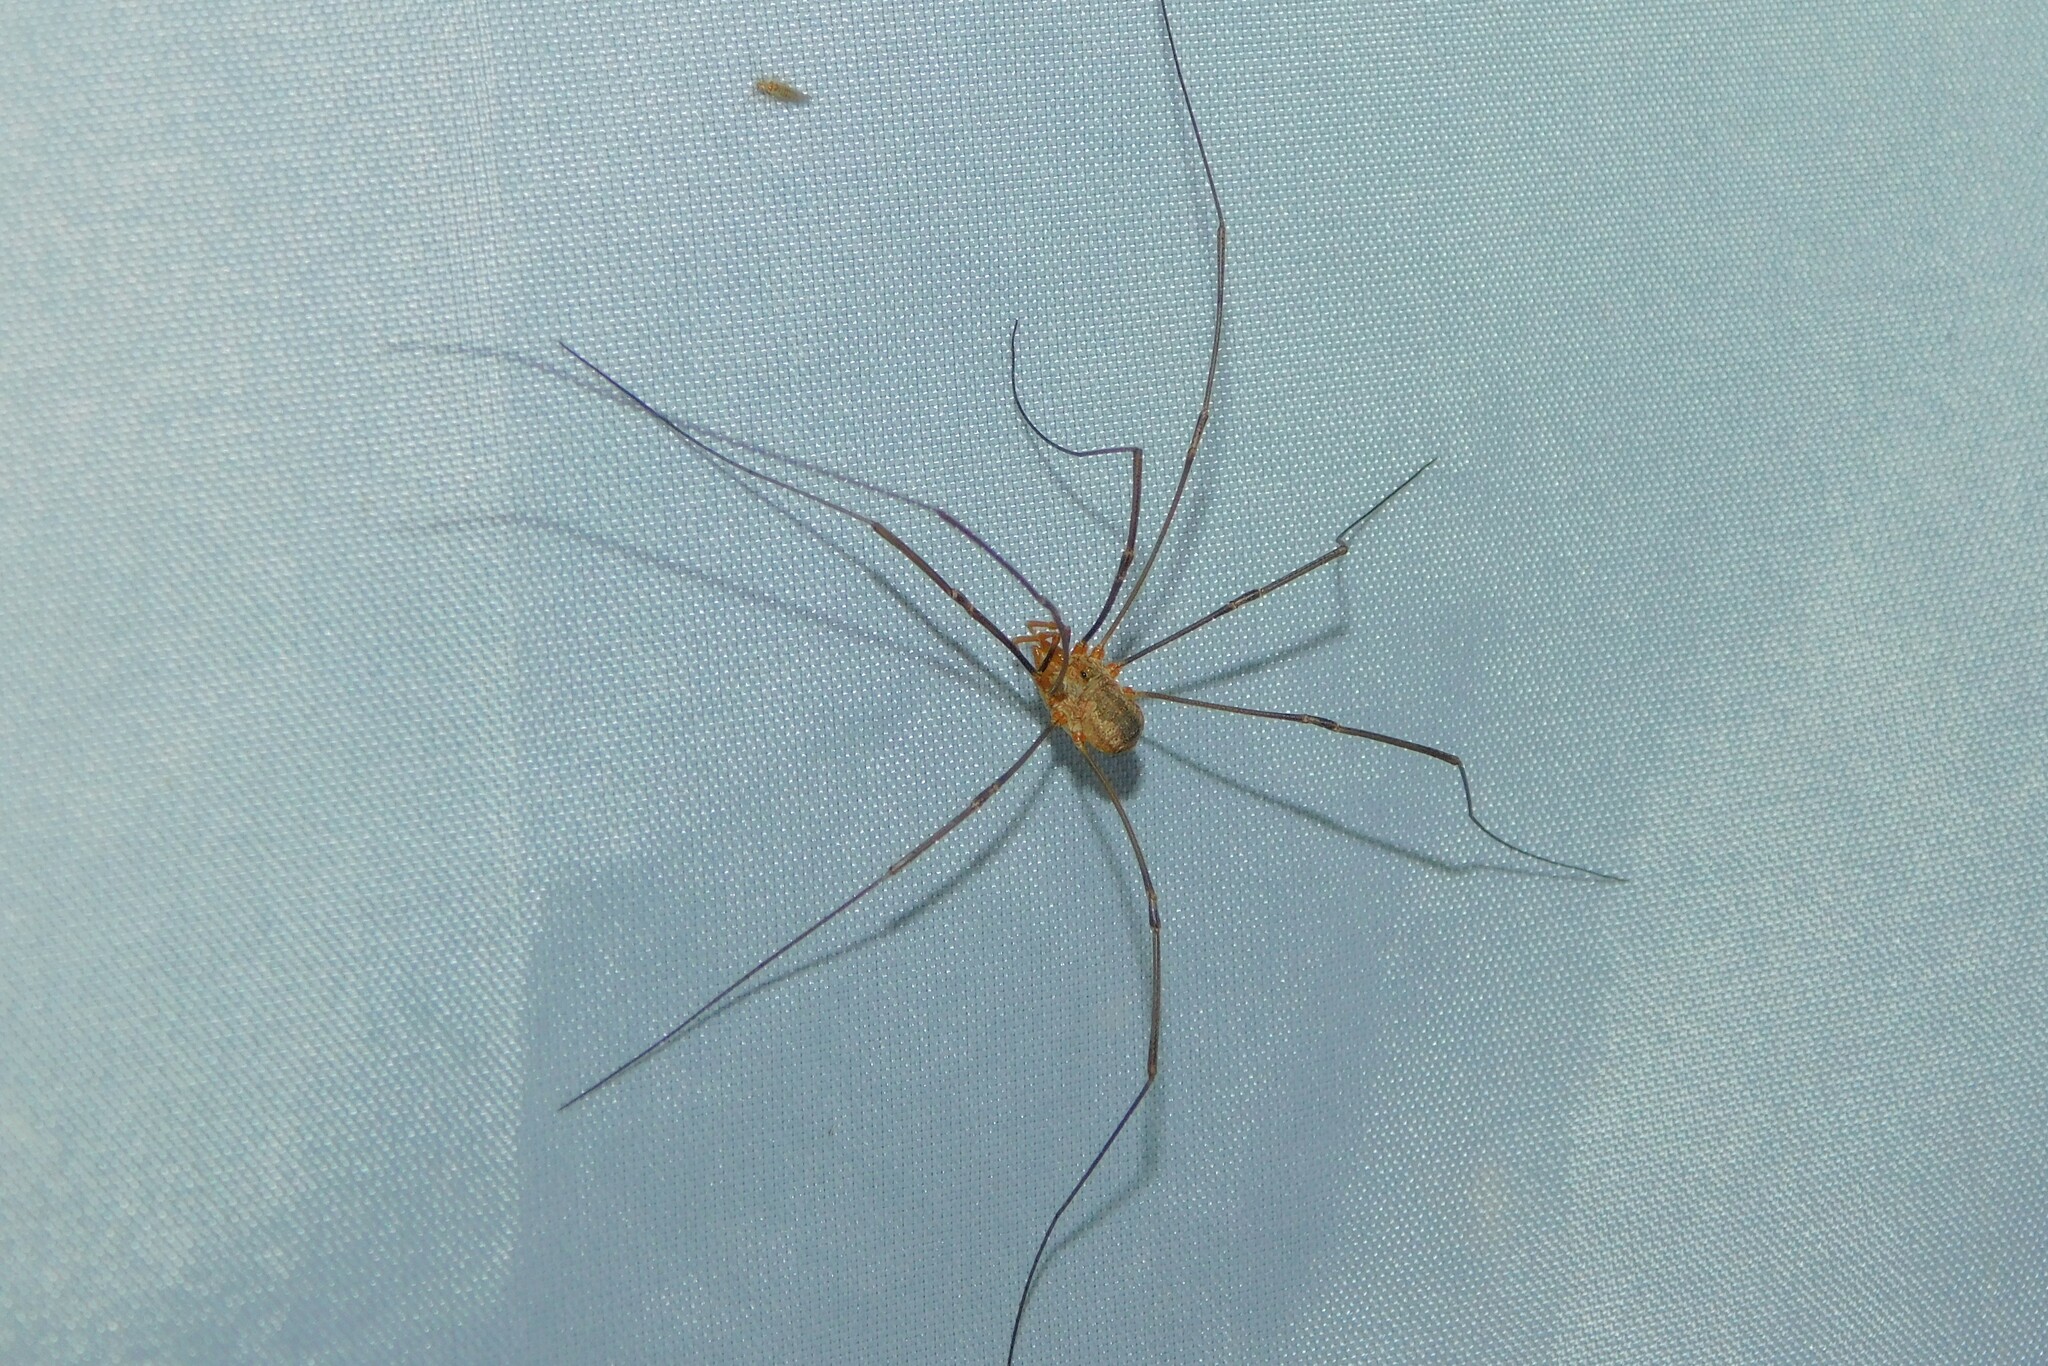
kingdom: Animalia
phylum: Arthropoda
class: Arachnida
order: Opiliones
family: Phalangiidae
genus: Phalangium
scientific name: Phalangium opilio
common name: Daddy longleg
